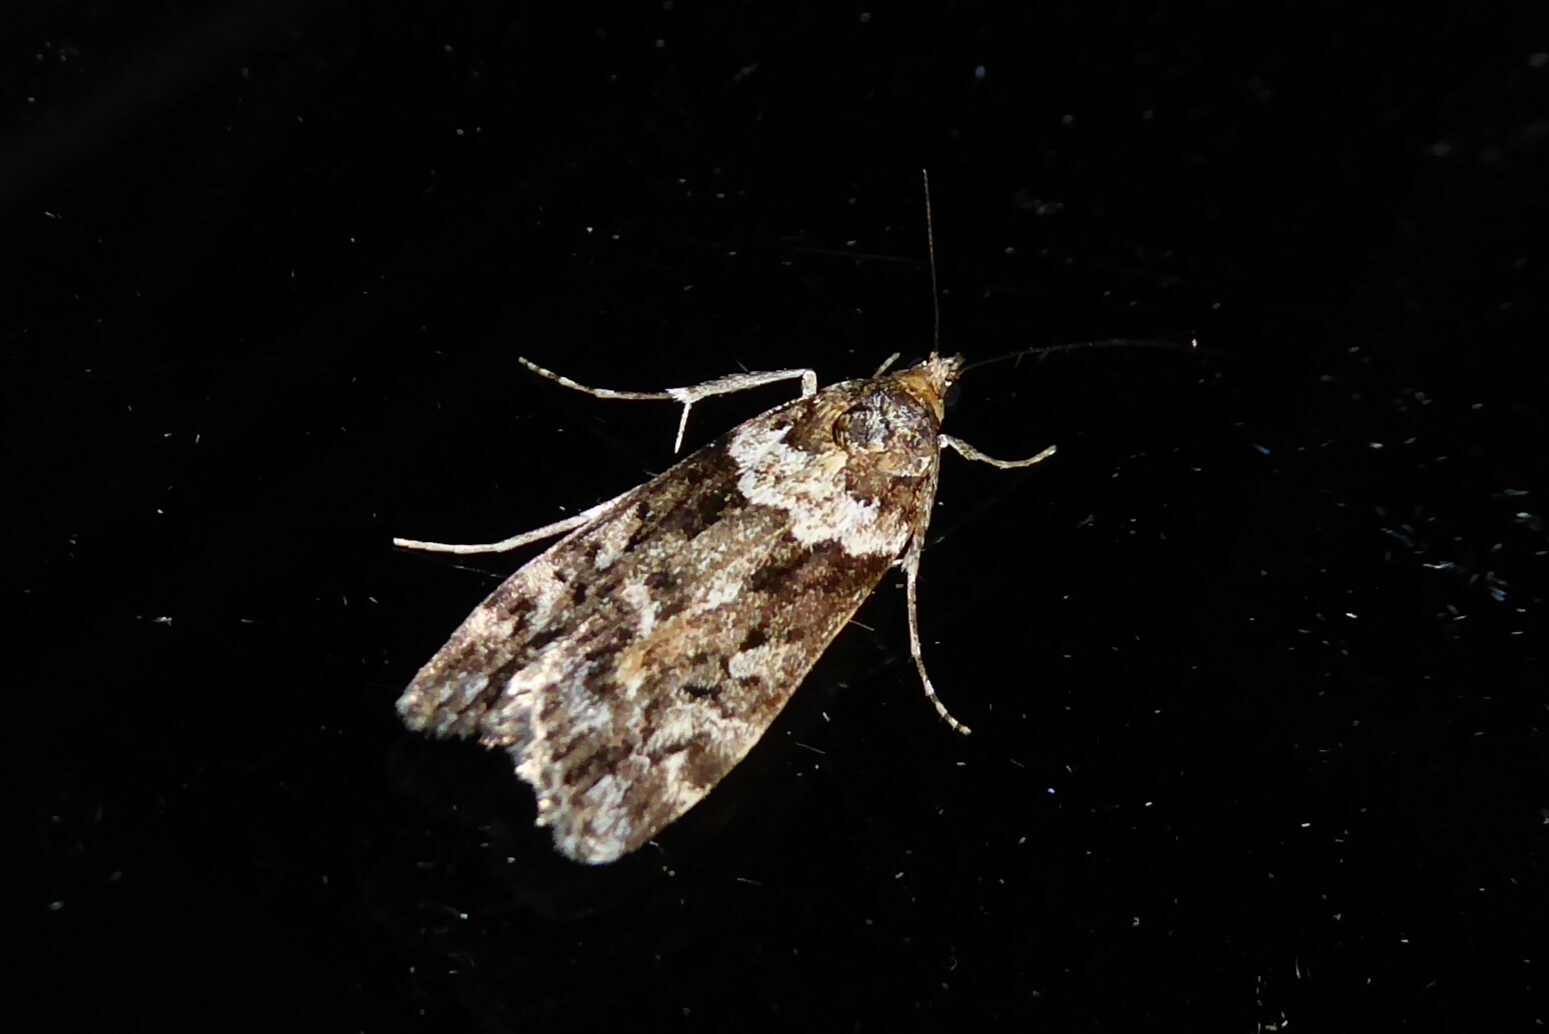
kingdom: Animalia
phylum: Arthropoda
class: Insecta
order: Lepidoptera
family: Crambidae
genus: Eudonia
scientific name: Eudonia submarginalis
